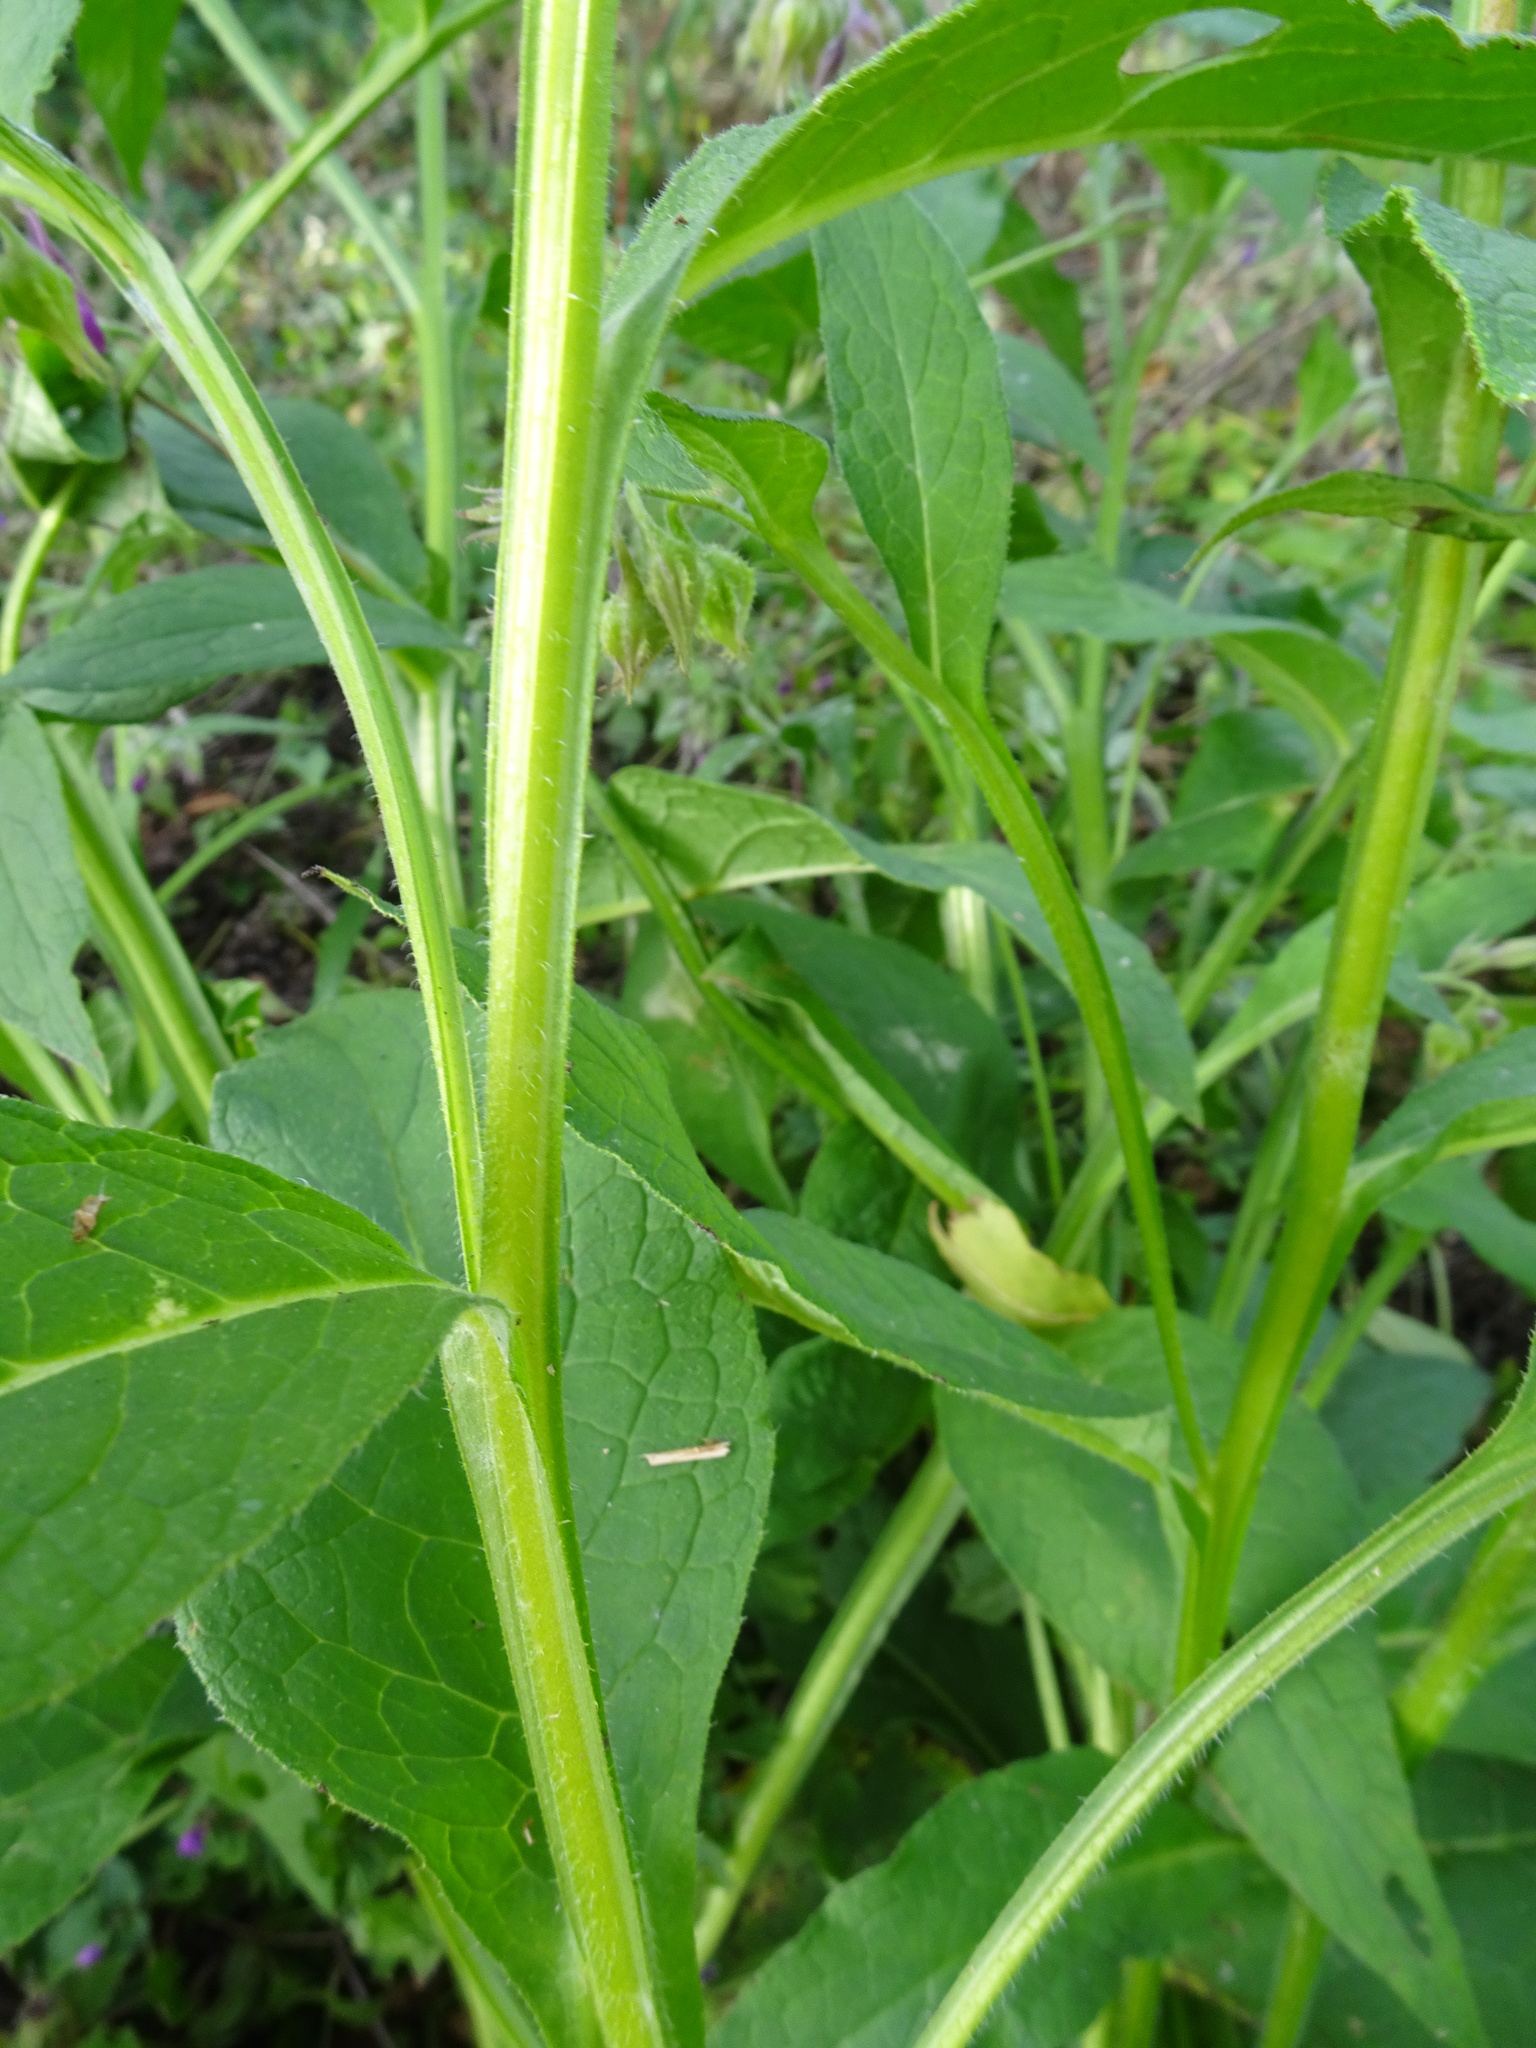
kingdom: Plantae
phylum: Tracheophyta
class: Magnoliopsida
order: Boraginales
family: Boraginaceae
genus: Symphytum
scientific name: Symphytum officinale
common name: Common comfrey
